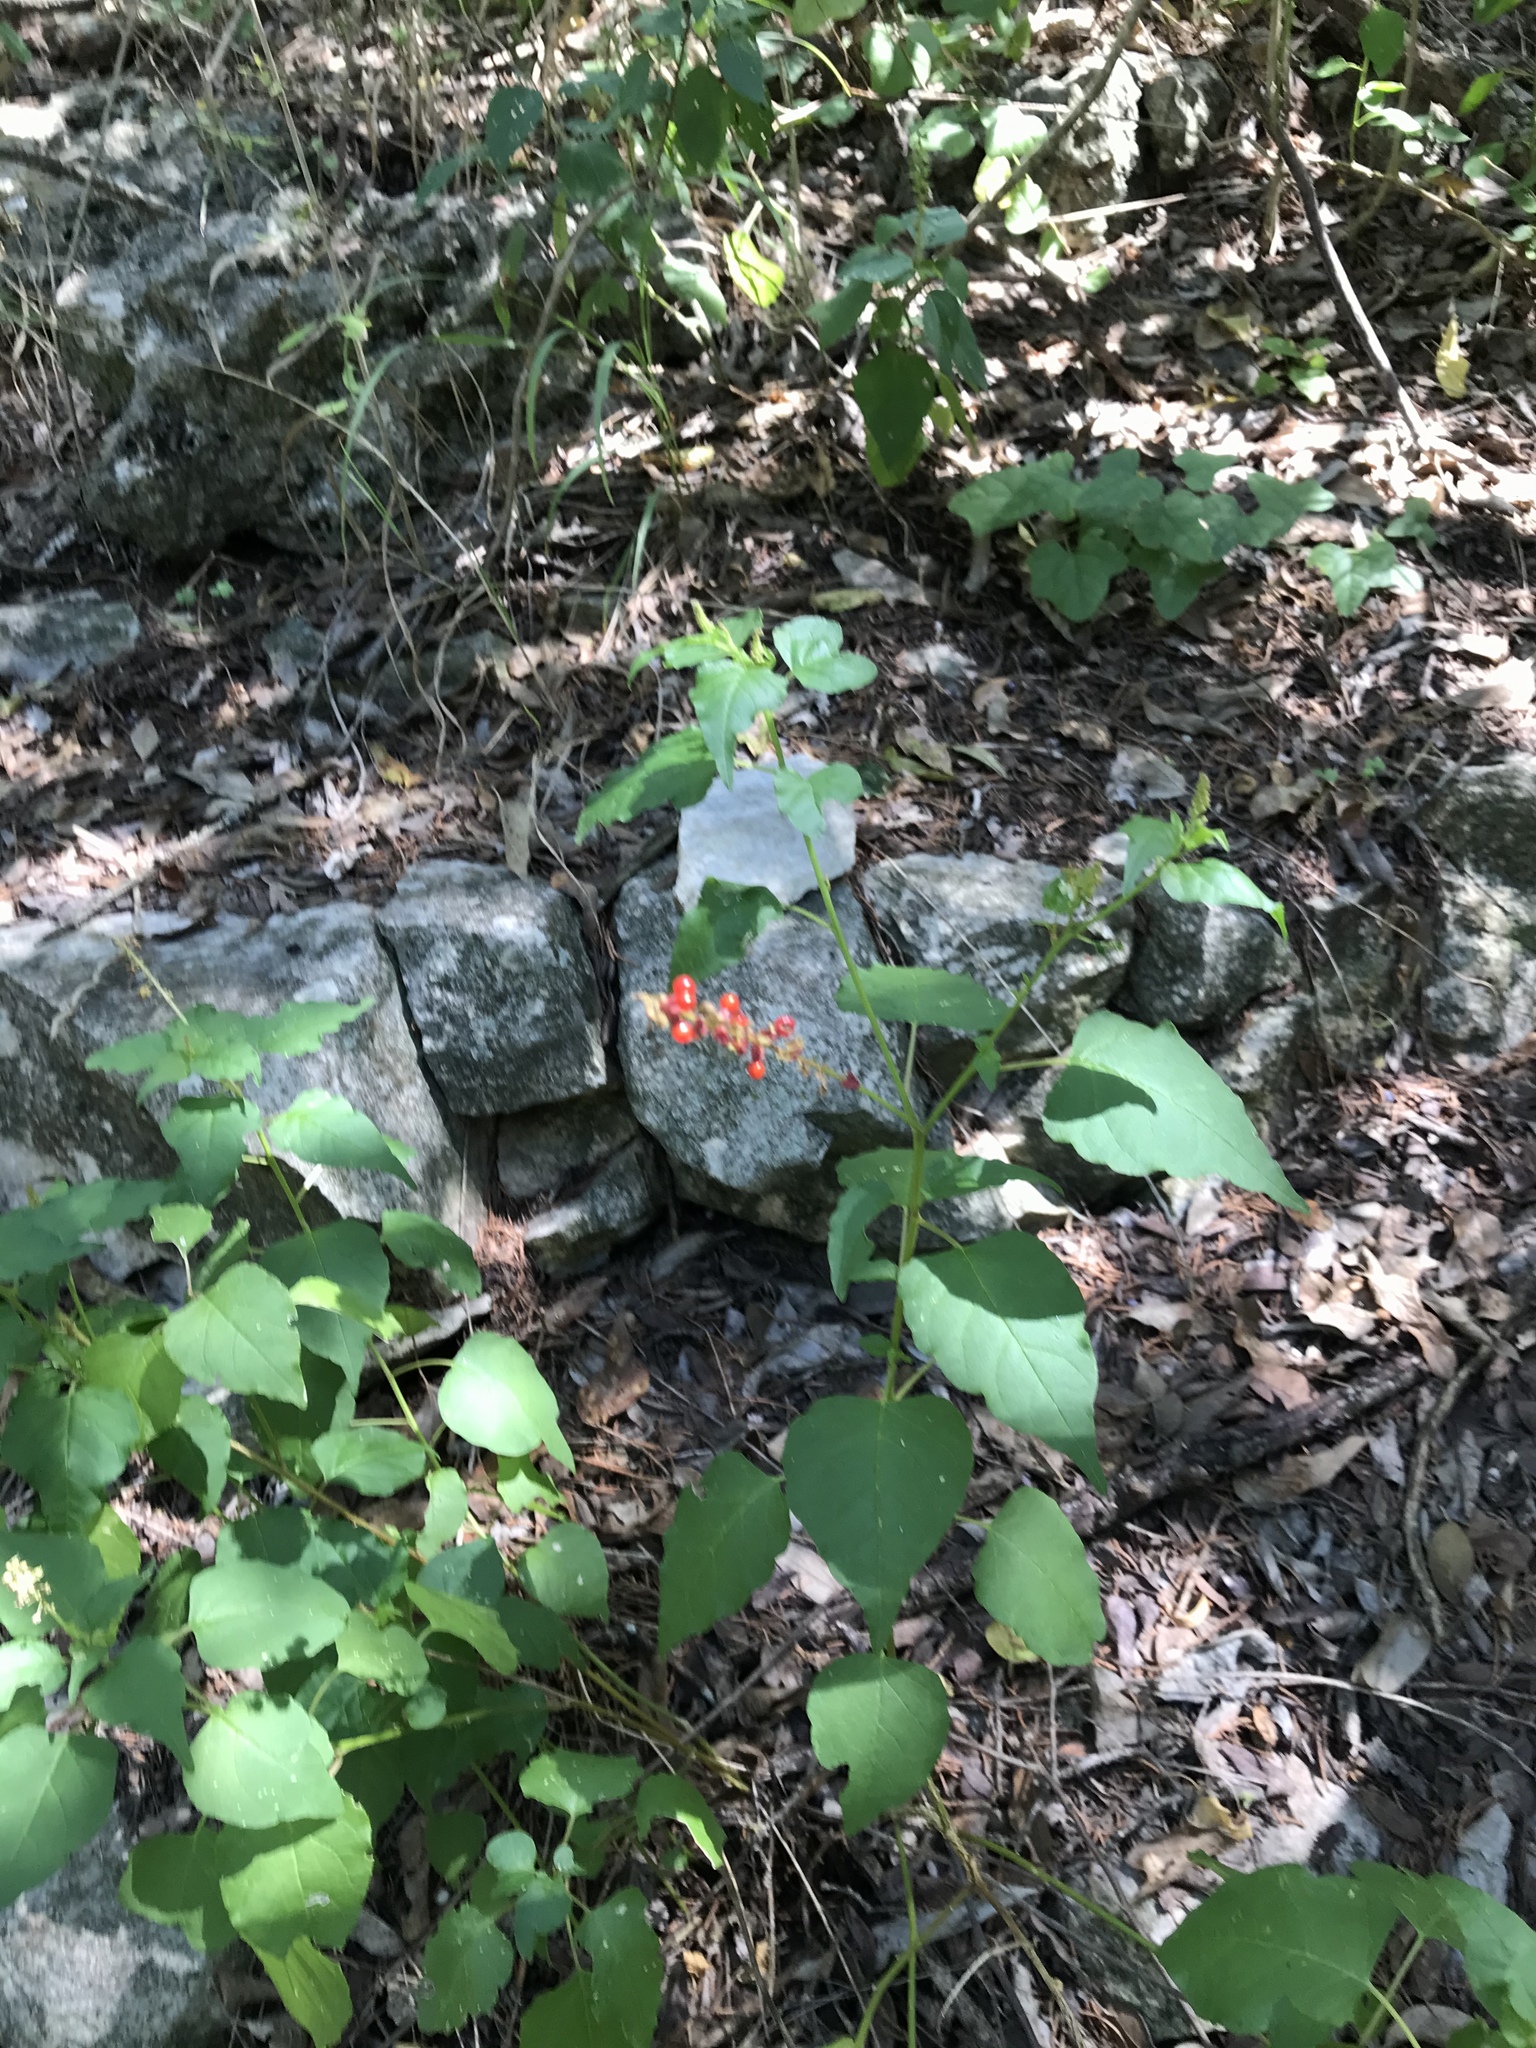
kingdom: Plantae
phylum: Tracheophyta
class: Magnoliopsida
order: Caryophyllales
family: Phytolaccaceae
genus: Rivina
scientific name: Rivina humilis
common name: Rougeplant
